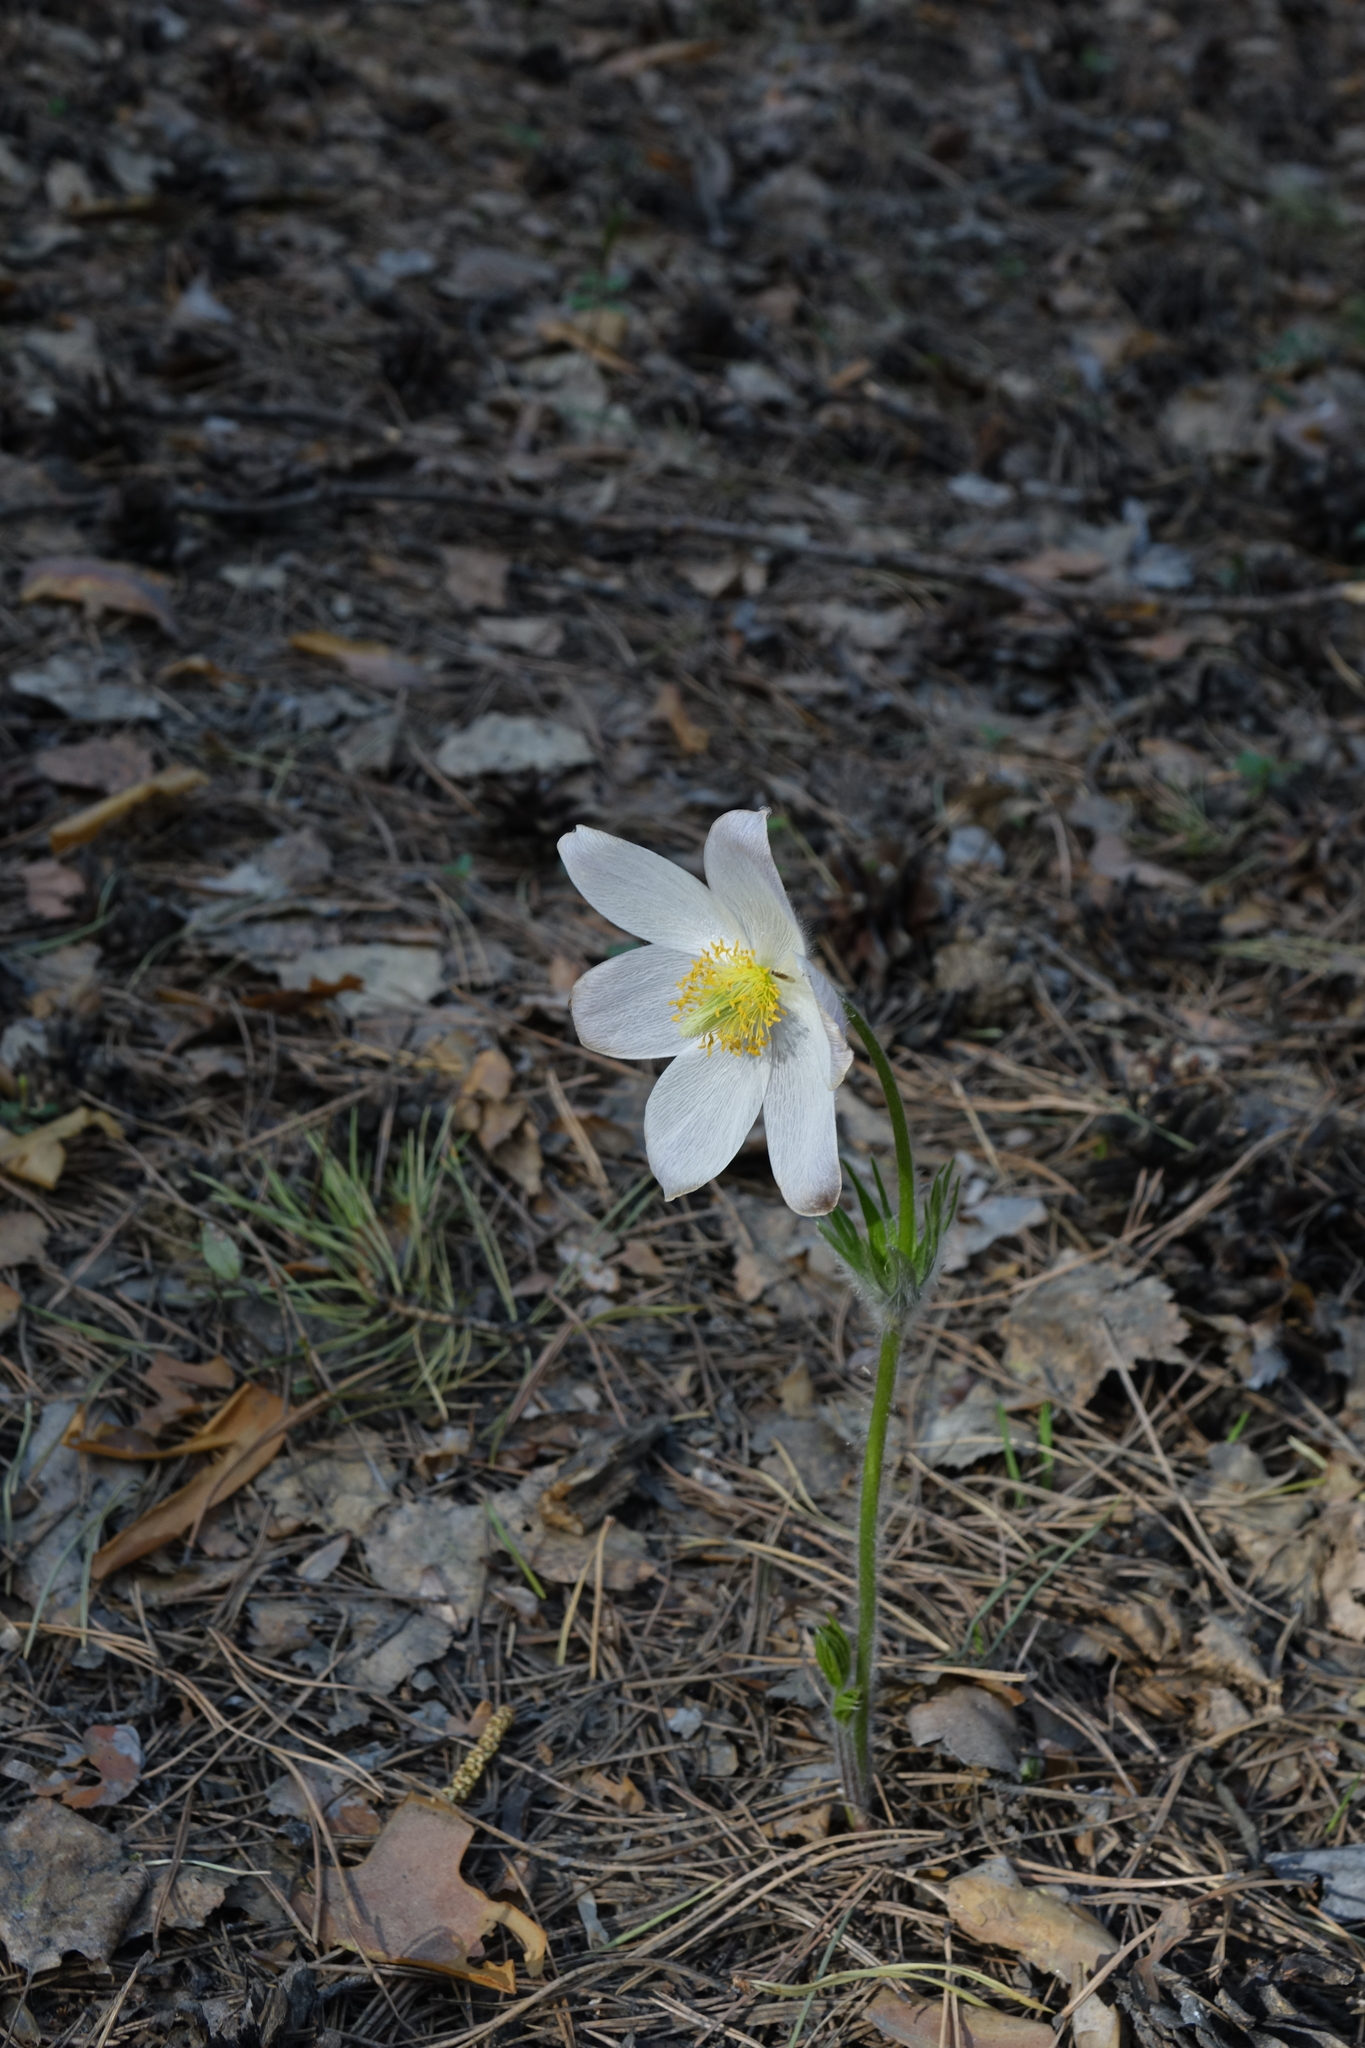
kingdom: Plantae
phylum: Tracheophyta
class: Magnoliopsida
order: Ranunculales
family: Ranunculaceae
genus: Pulsatilla
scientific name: Pulsatilla patens
